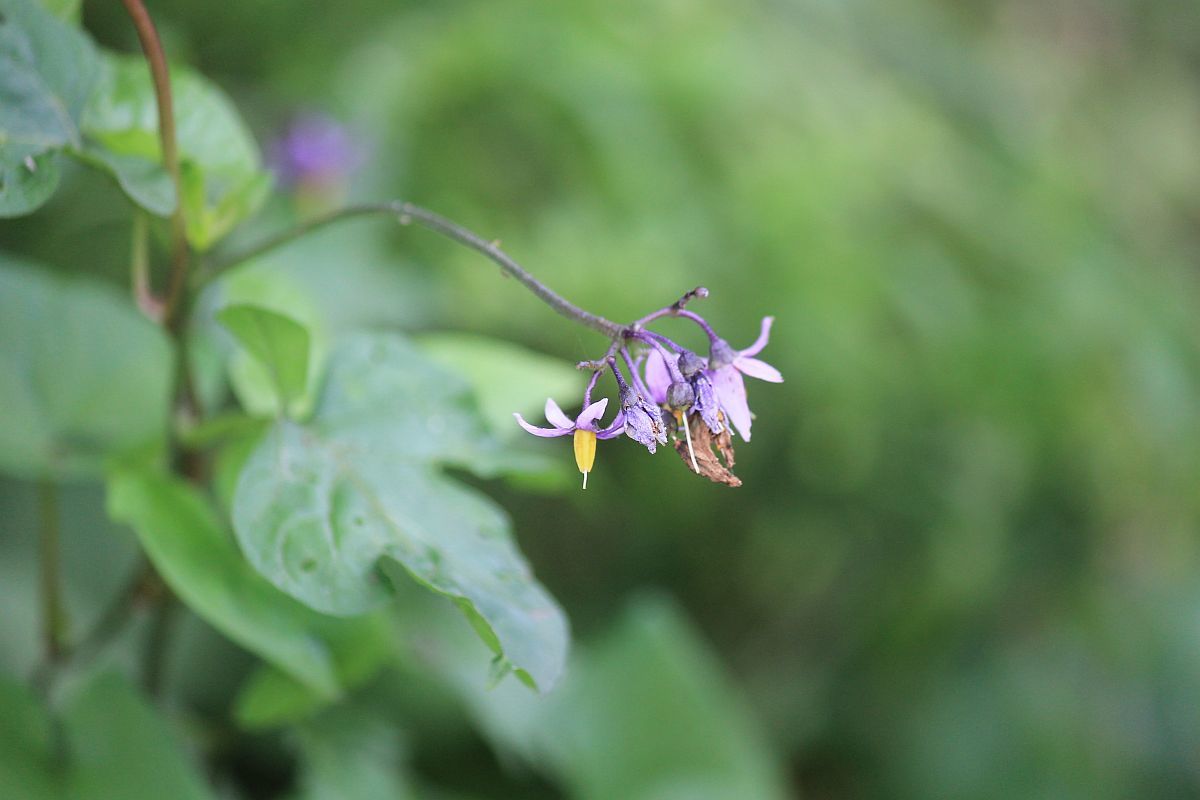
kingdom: Plantae
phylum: Tracheophyta
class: Magnoliopsida
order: Solanales
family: Solanaceae
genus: Solanum
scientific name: Solanum dulcamara
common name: Climbing nightshade
